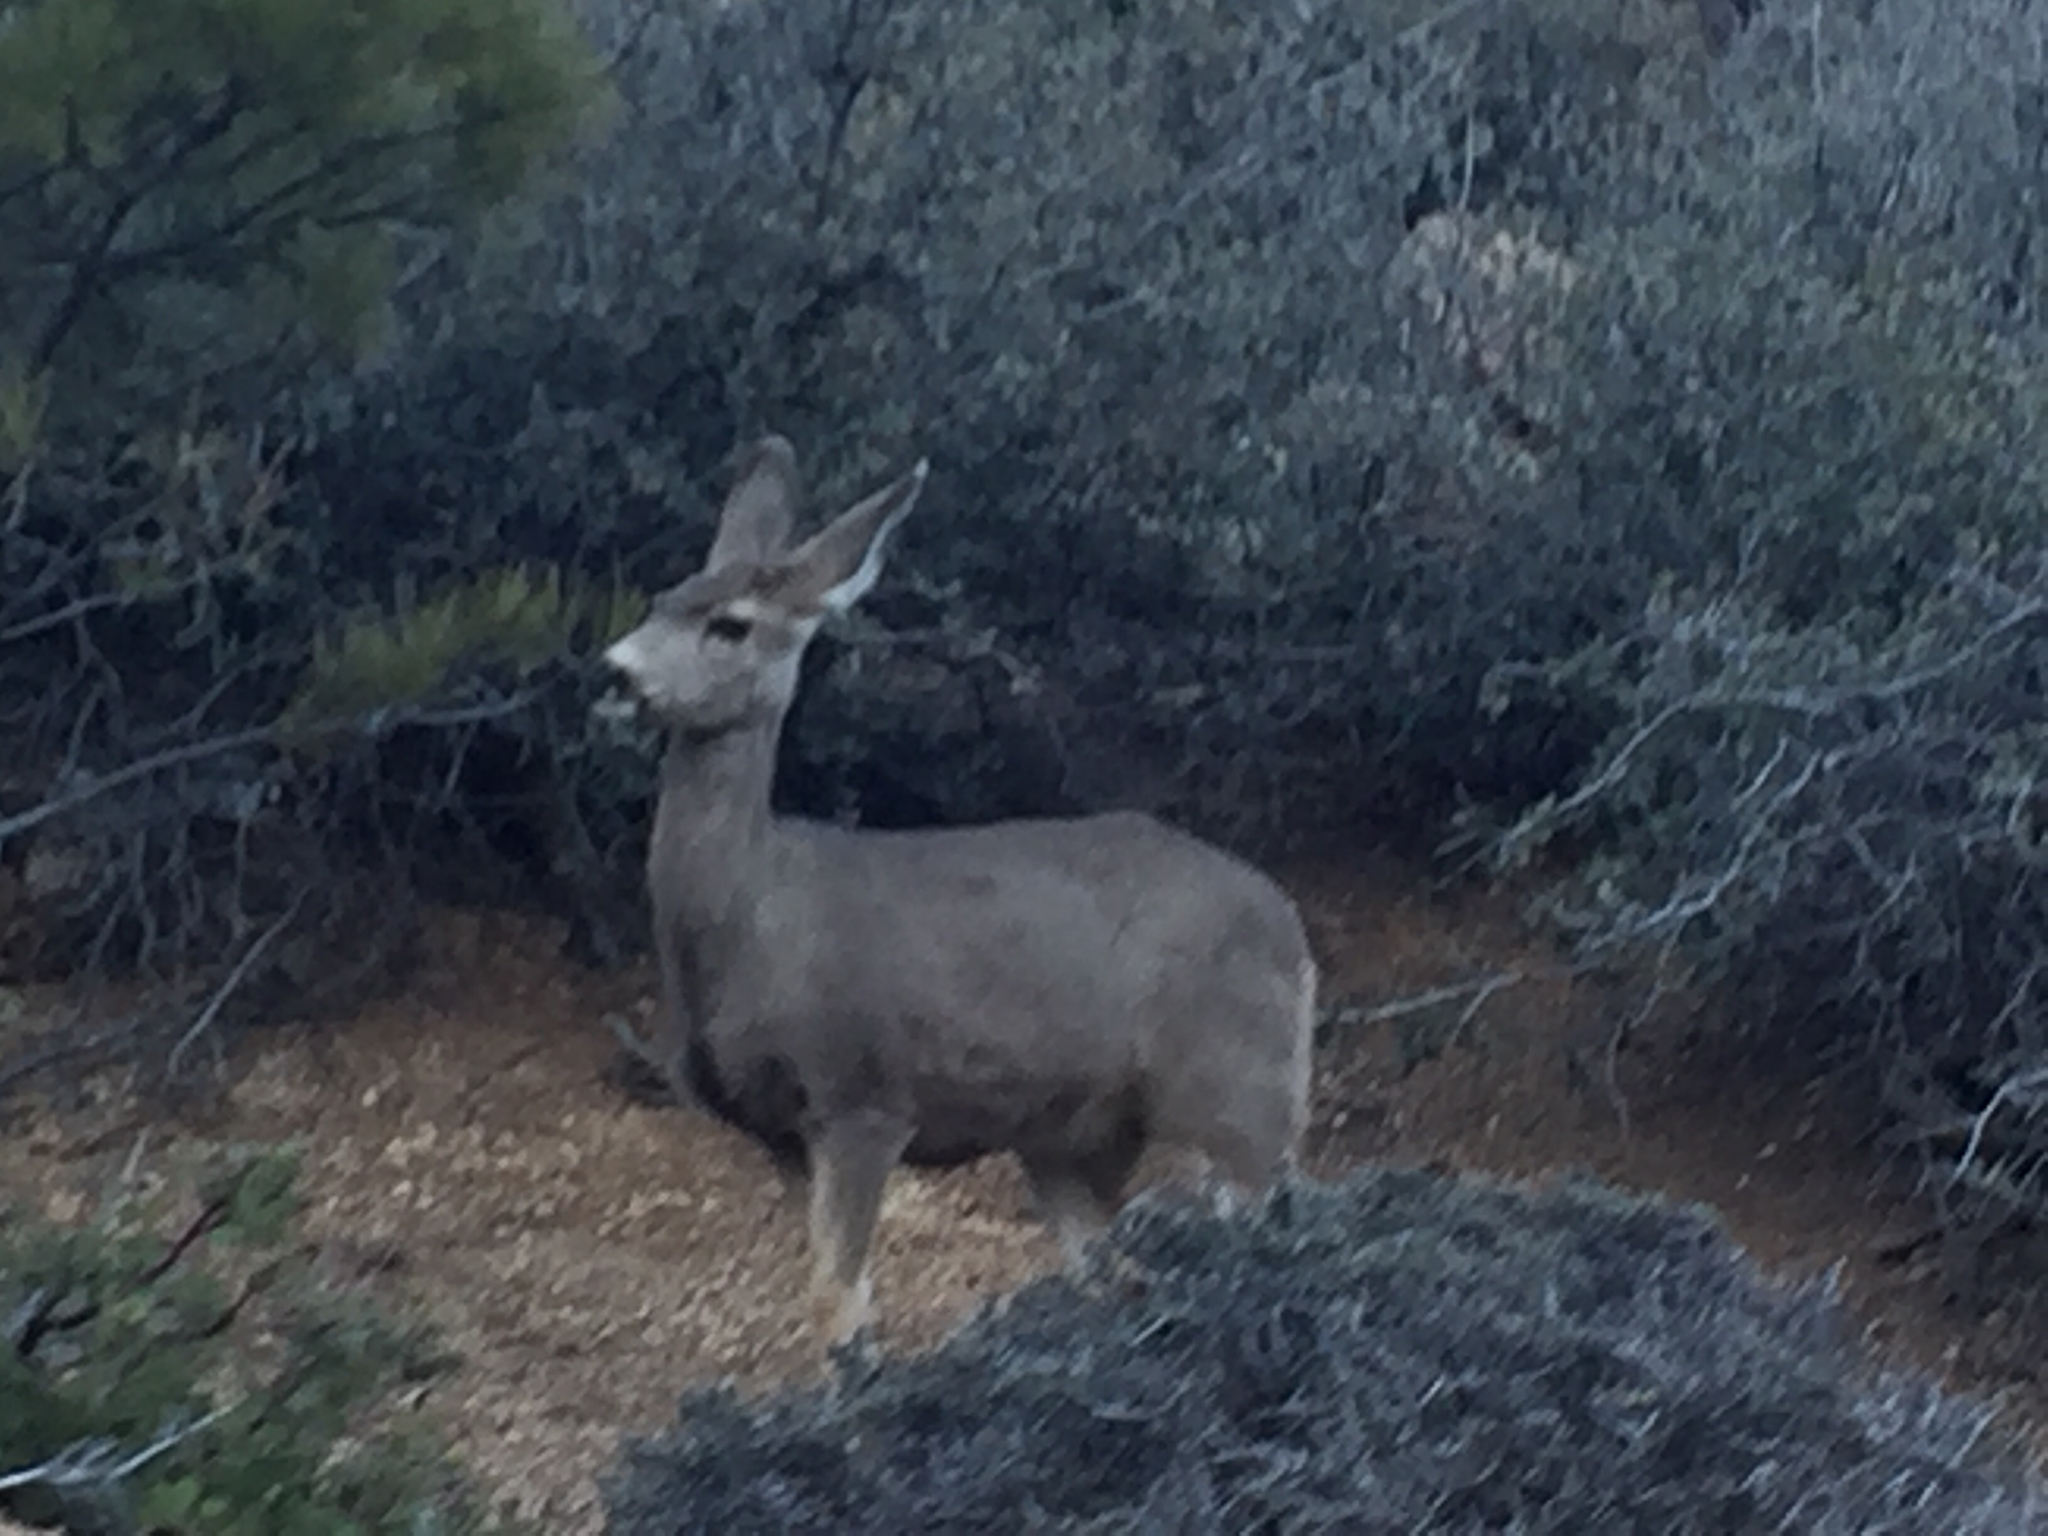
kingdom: Animalia
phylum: Chordata
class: Mammalia
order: Artiodactyla
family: Cervidae
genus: Odocoileus
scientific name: Odocoileus hemionus
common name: Mule deer
